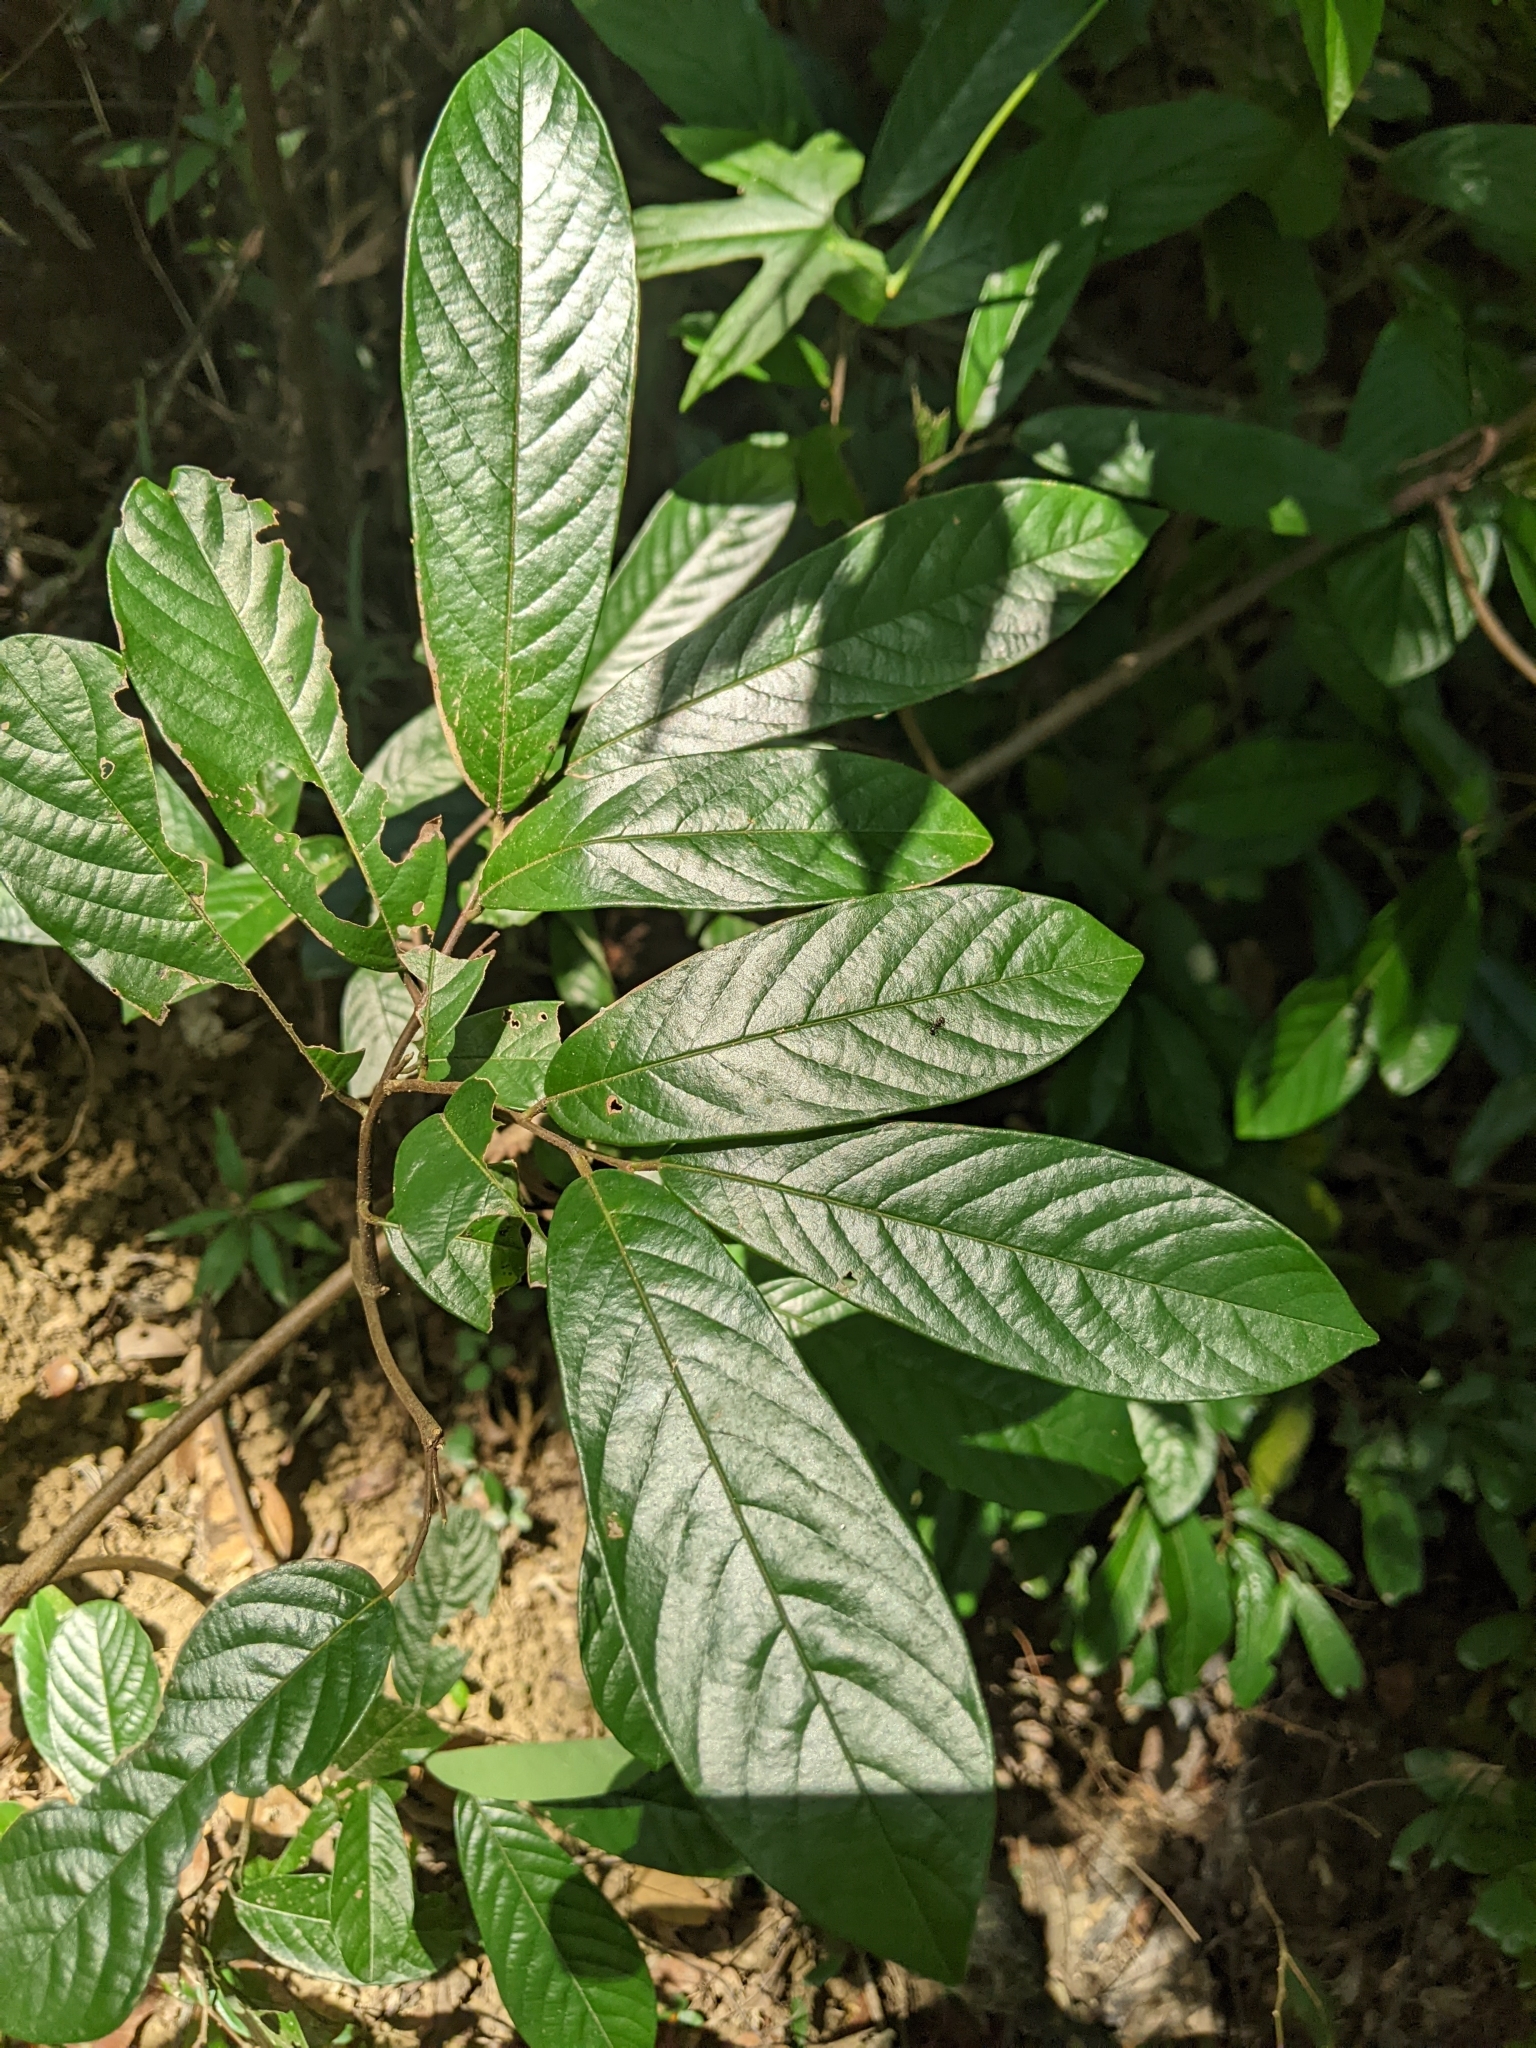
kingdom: Plantae
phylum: Tracheophyta
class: Magnoliopsida
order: Magnoliales
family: Annonaceae
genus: Fissistigma
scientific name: Fissistigma oldhamii
